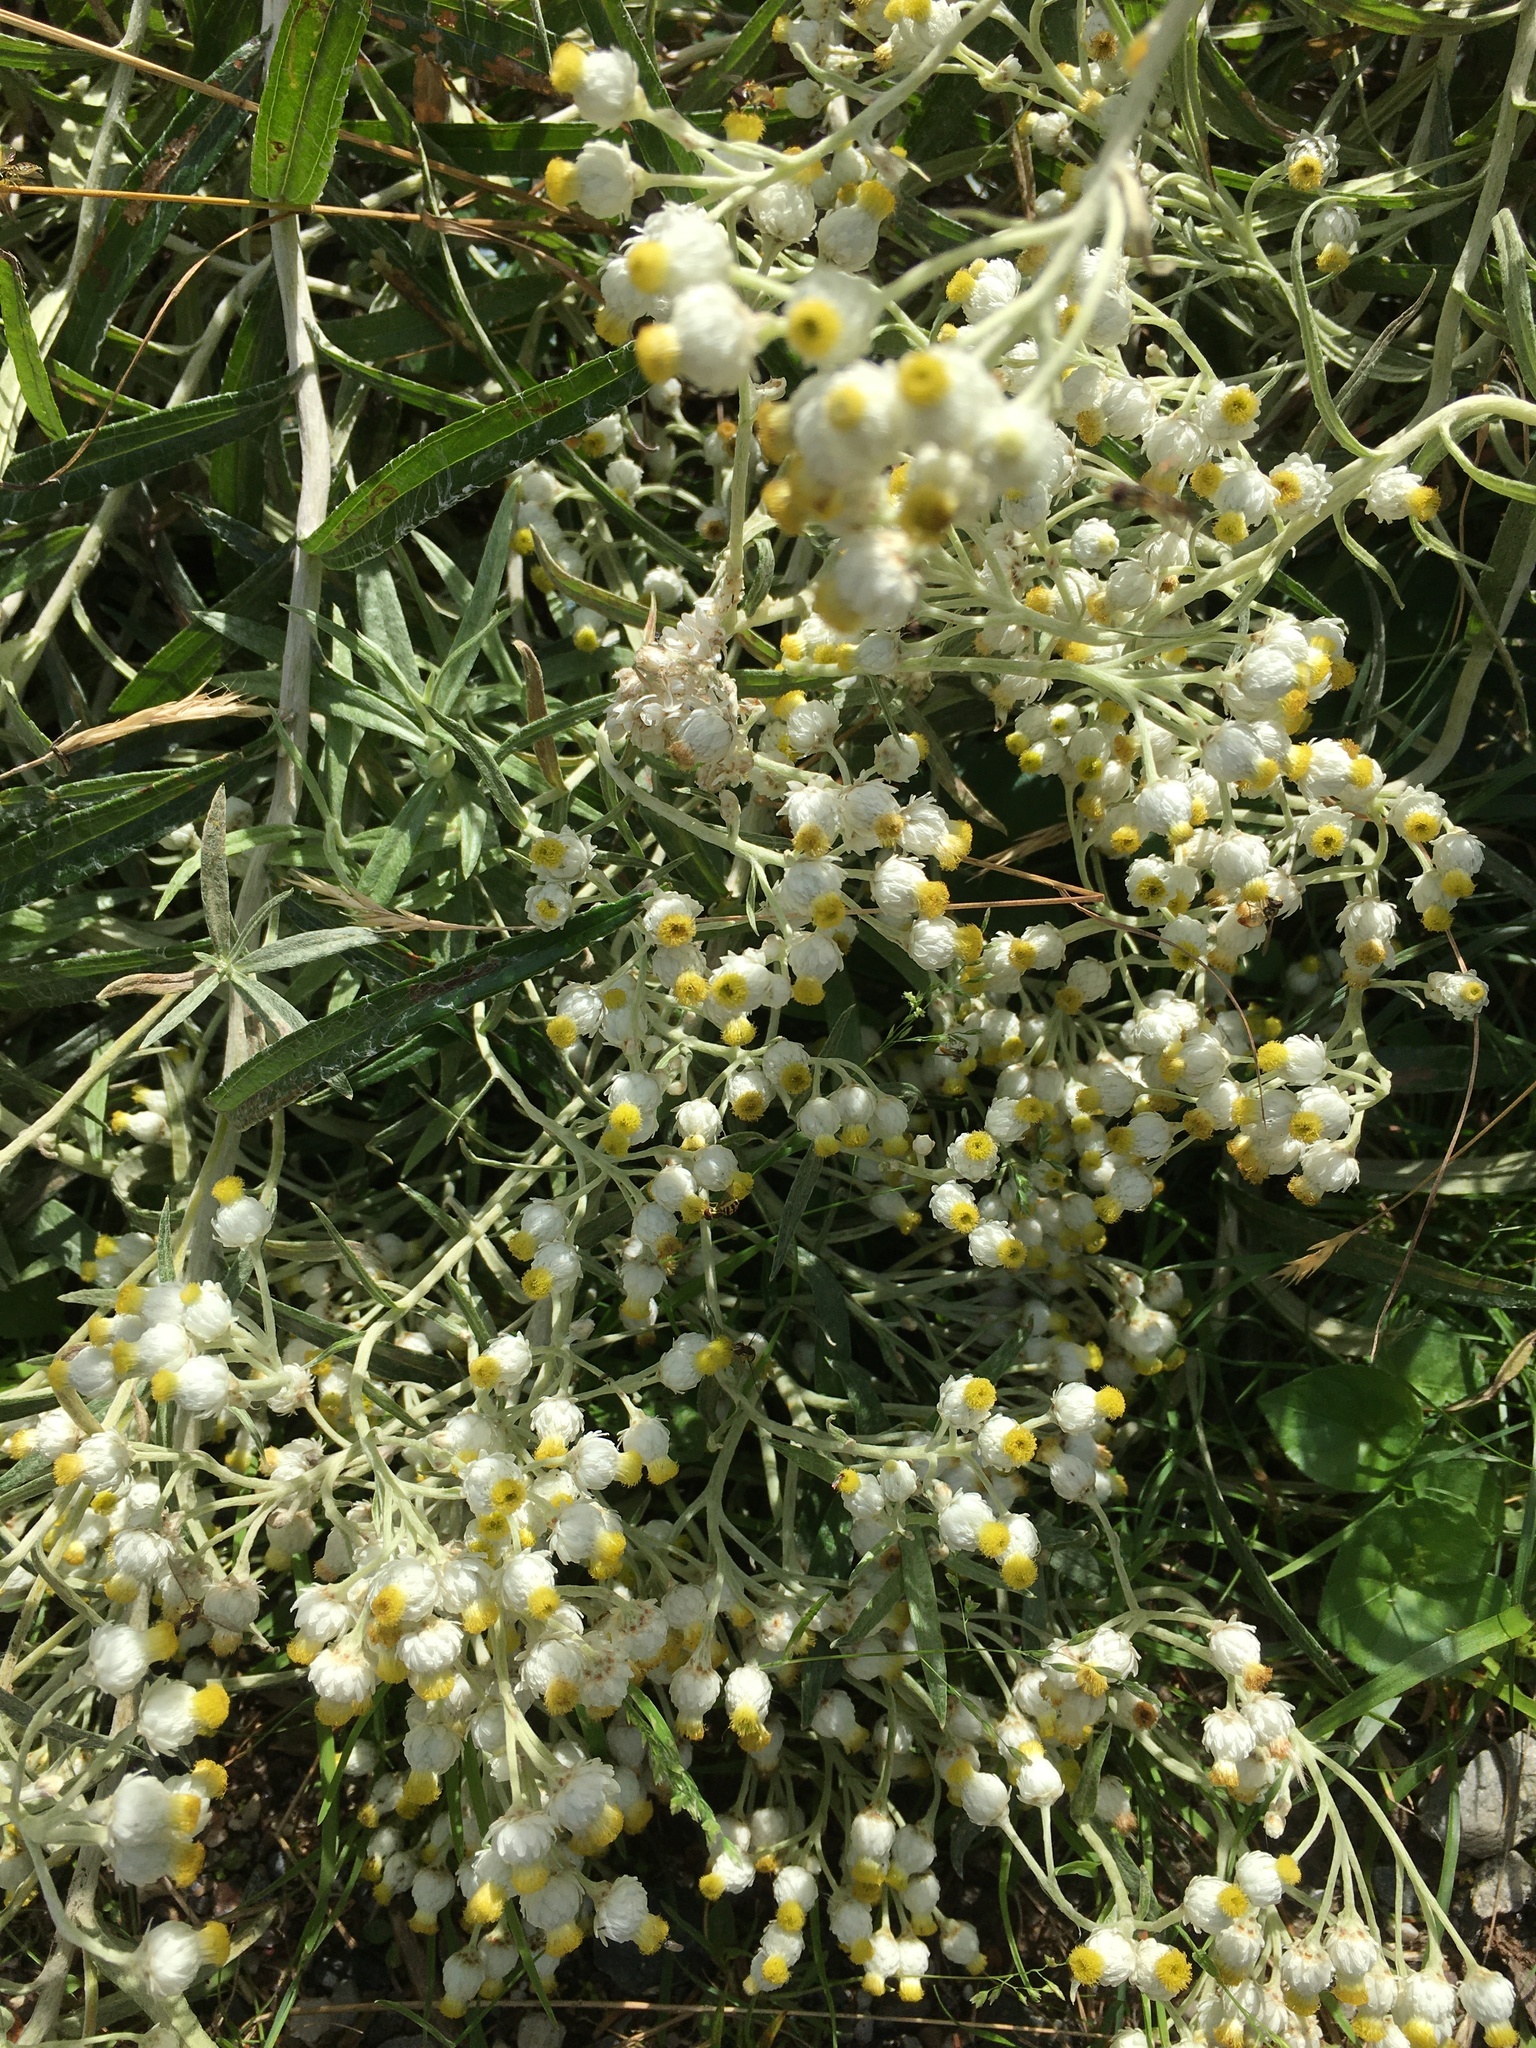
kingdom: Plantae
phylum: Tracheophyta
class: Magnoliopsida
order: Asterales
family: Asteraceae
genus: Anaphalis
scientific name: Anaphalis margaritacea
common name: Pearly everlasting
